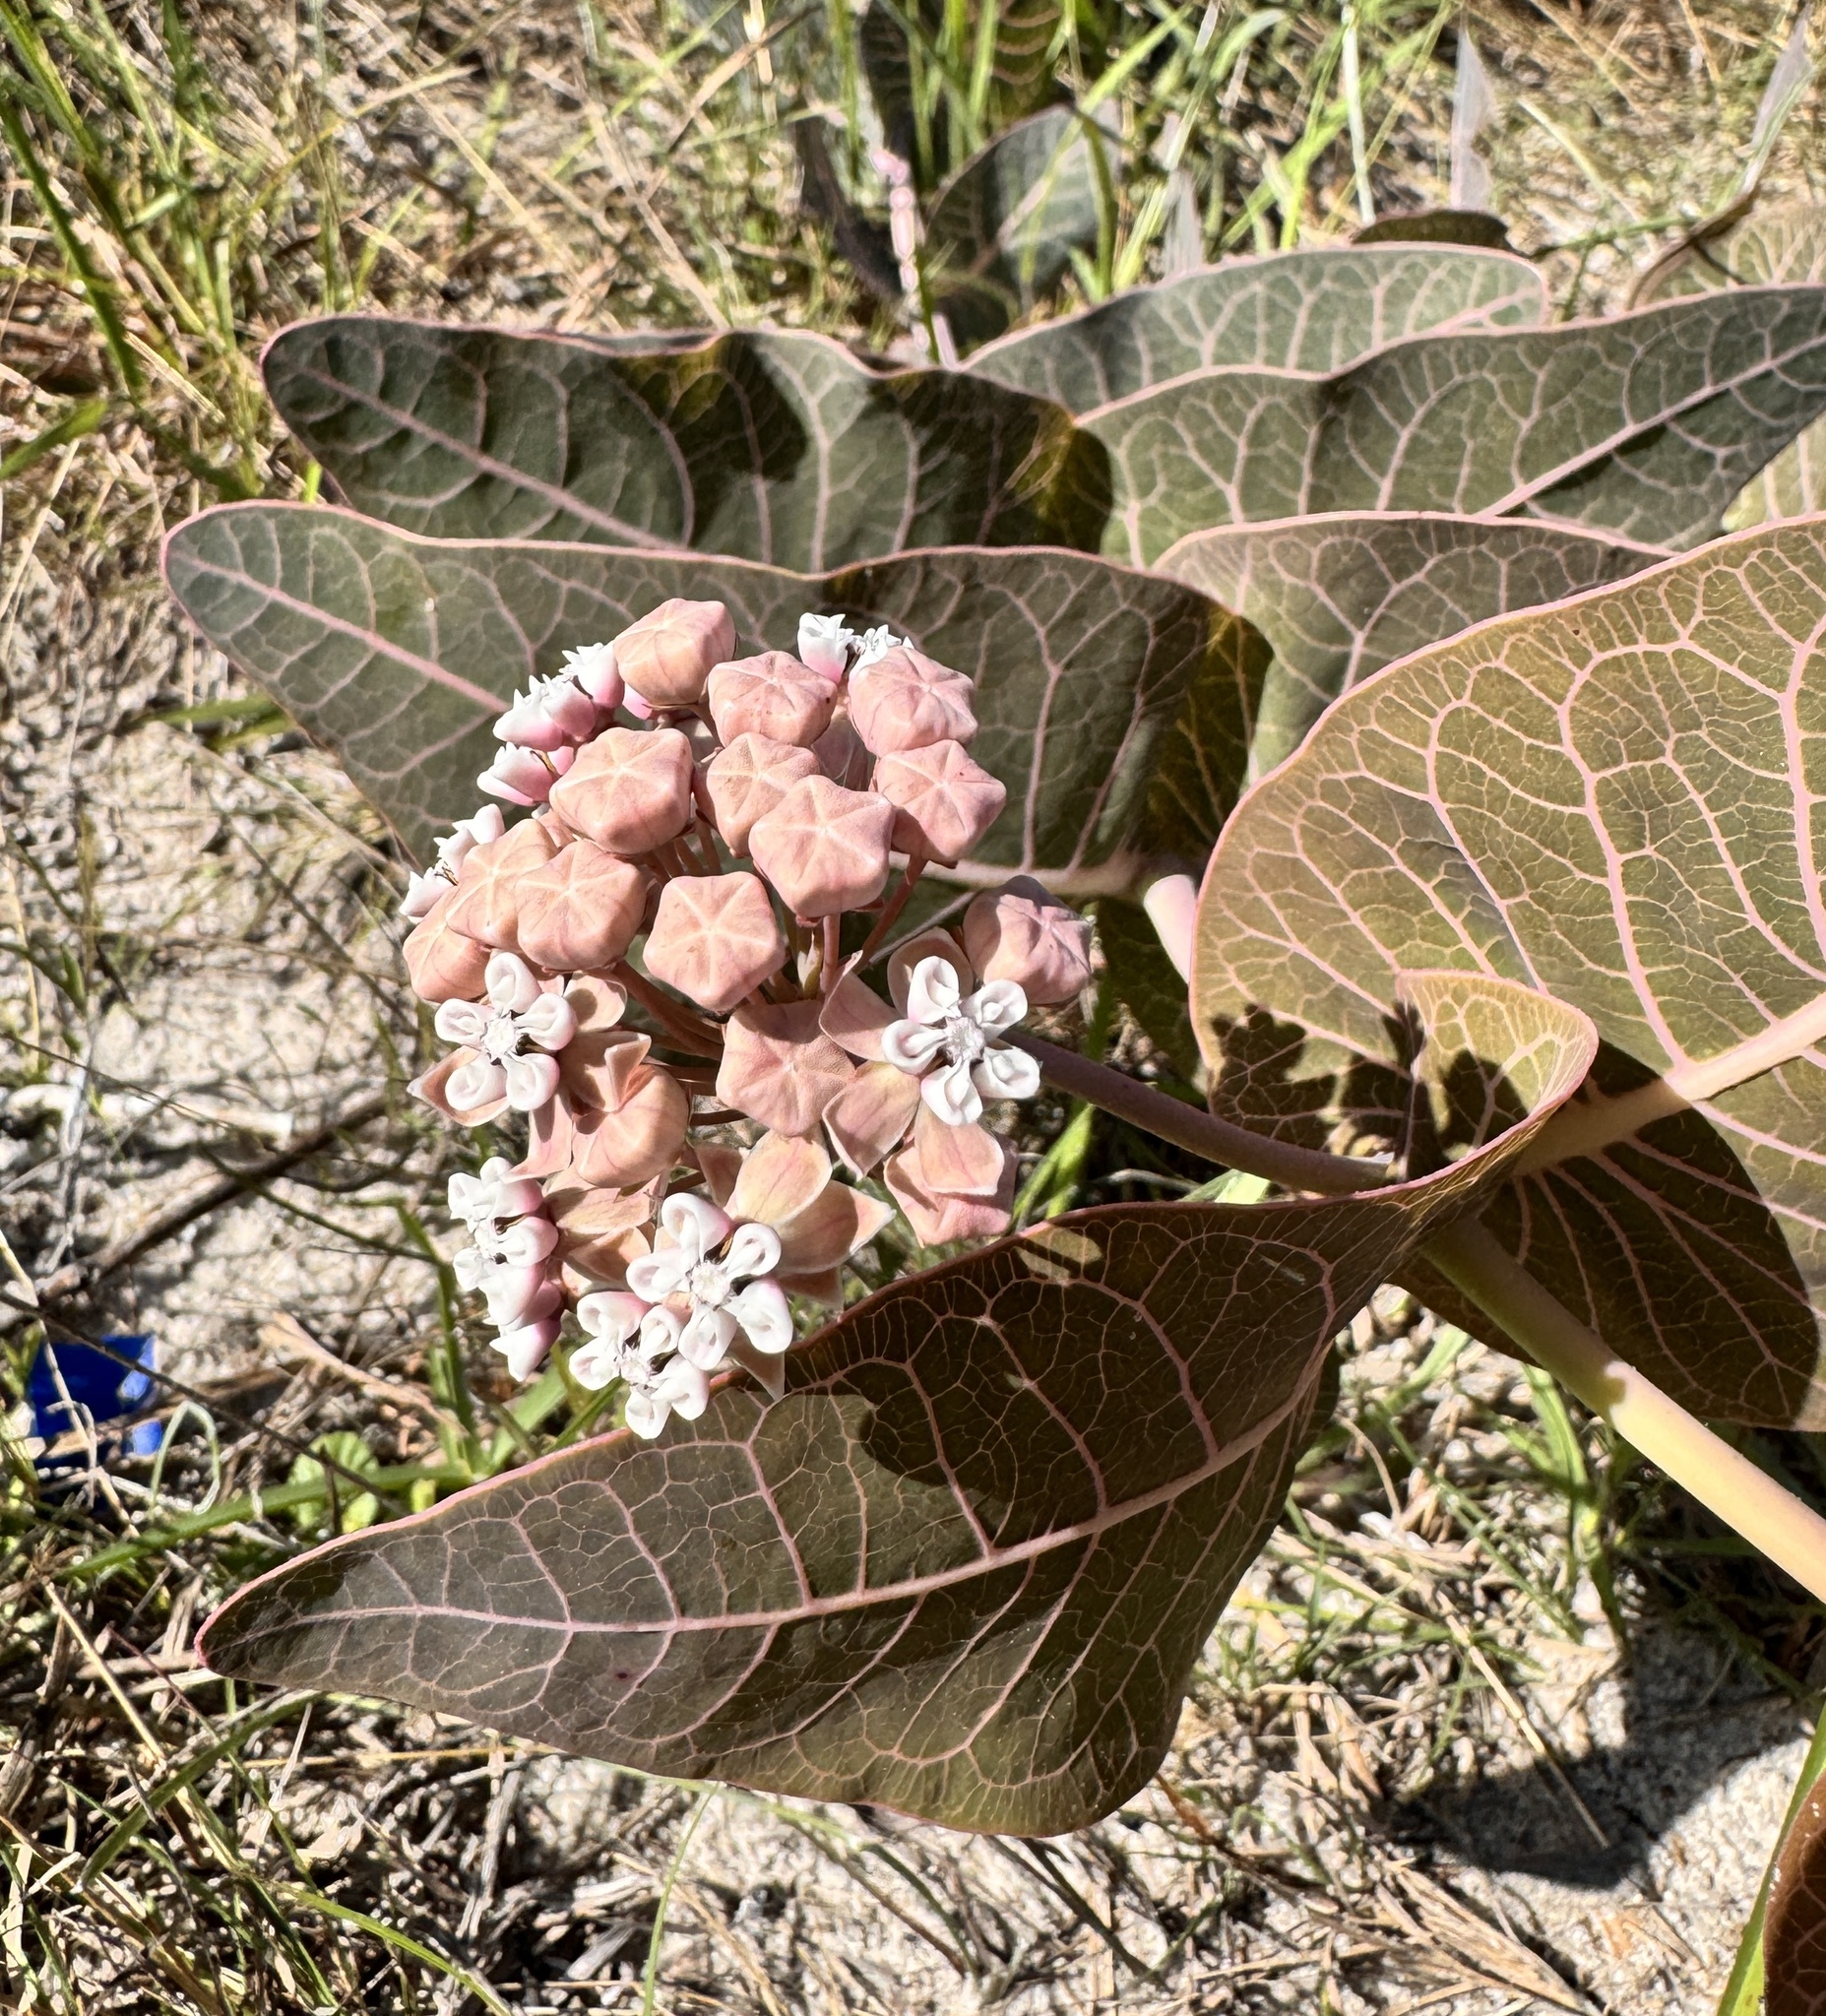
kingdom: Plantae
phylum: Tracheophyta
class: Magnoliopsida
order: Gentianales
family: Apocynaceae
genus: Asclepias
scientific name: Asclepias humistrata
